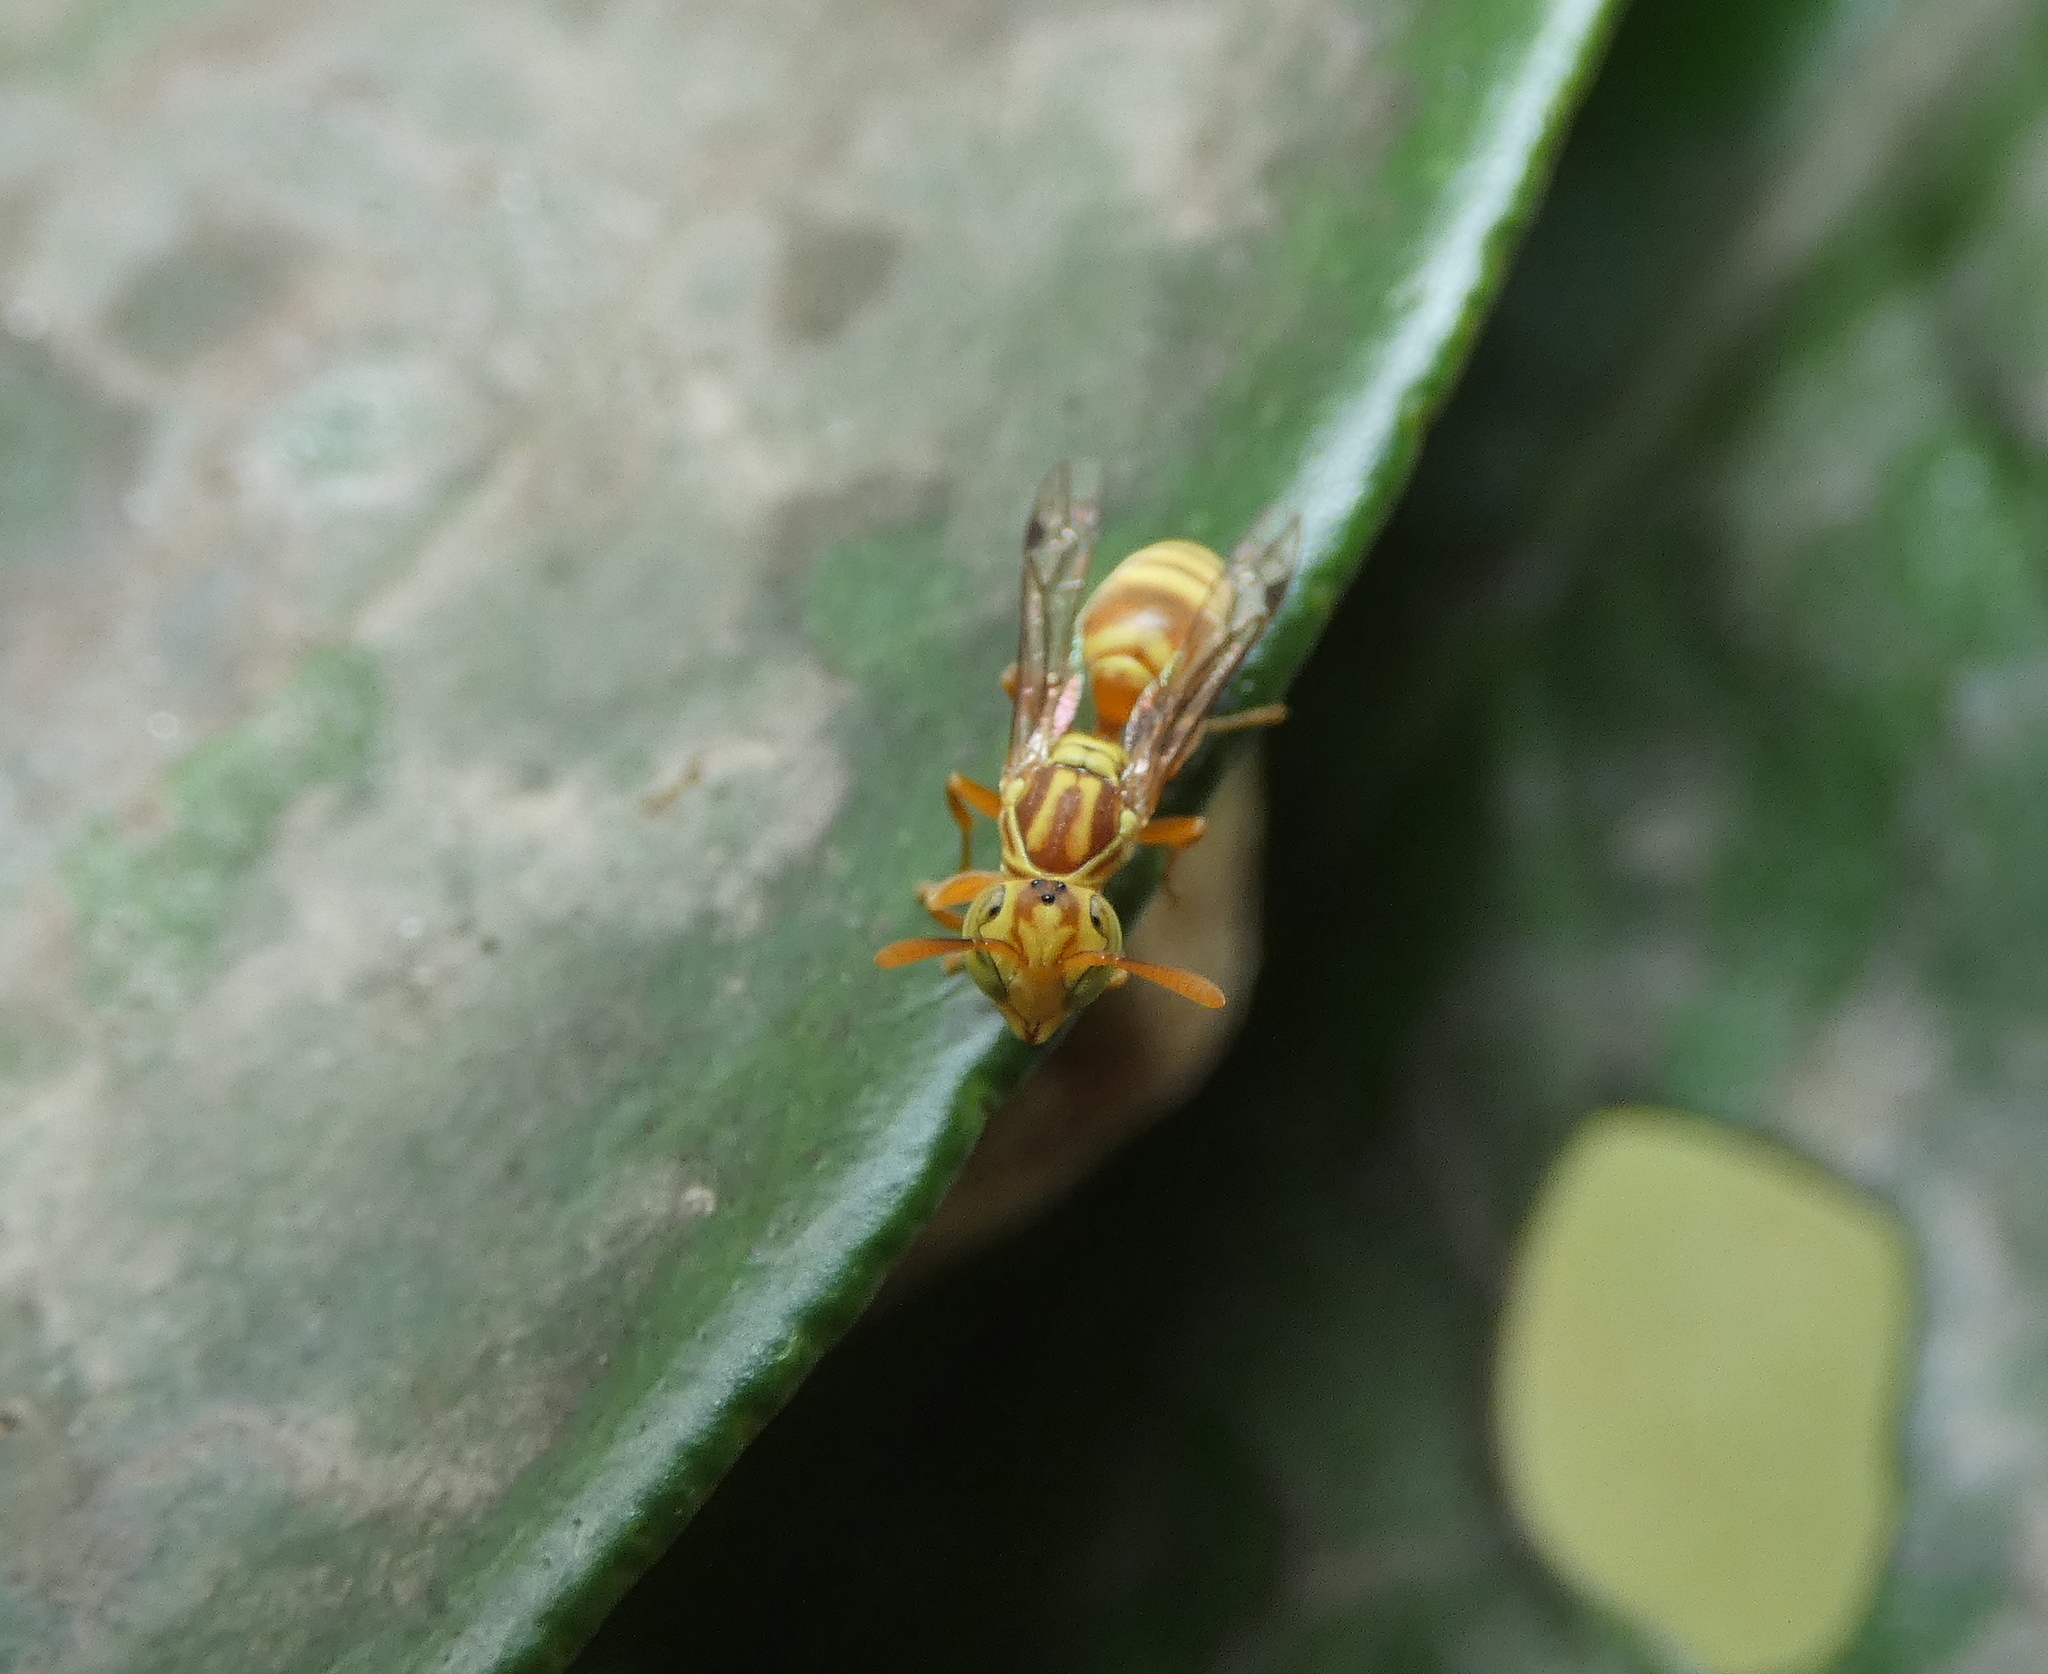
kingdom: Animalia
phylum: Arthropoda
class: Insecta
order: Hymenoptera
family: Vespidae
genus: Protopolybia
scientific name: Protopolybia potiguara
